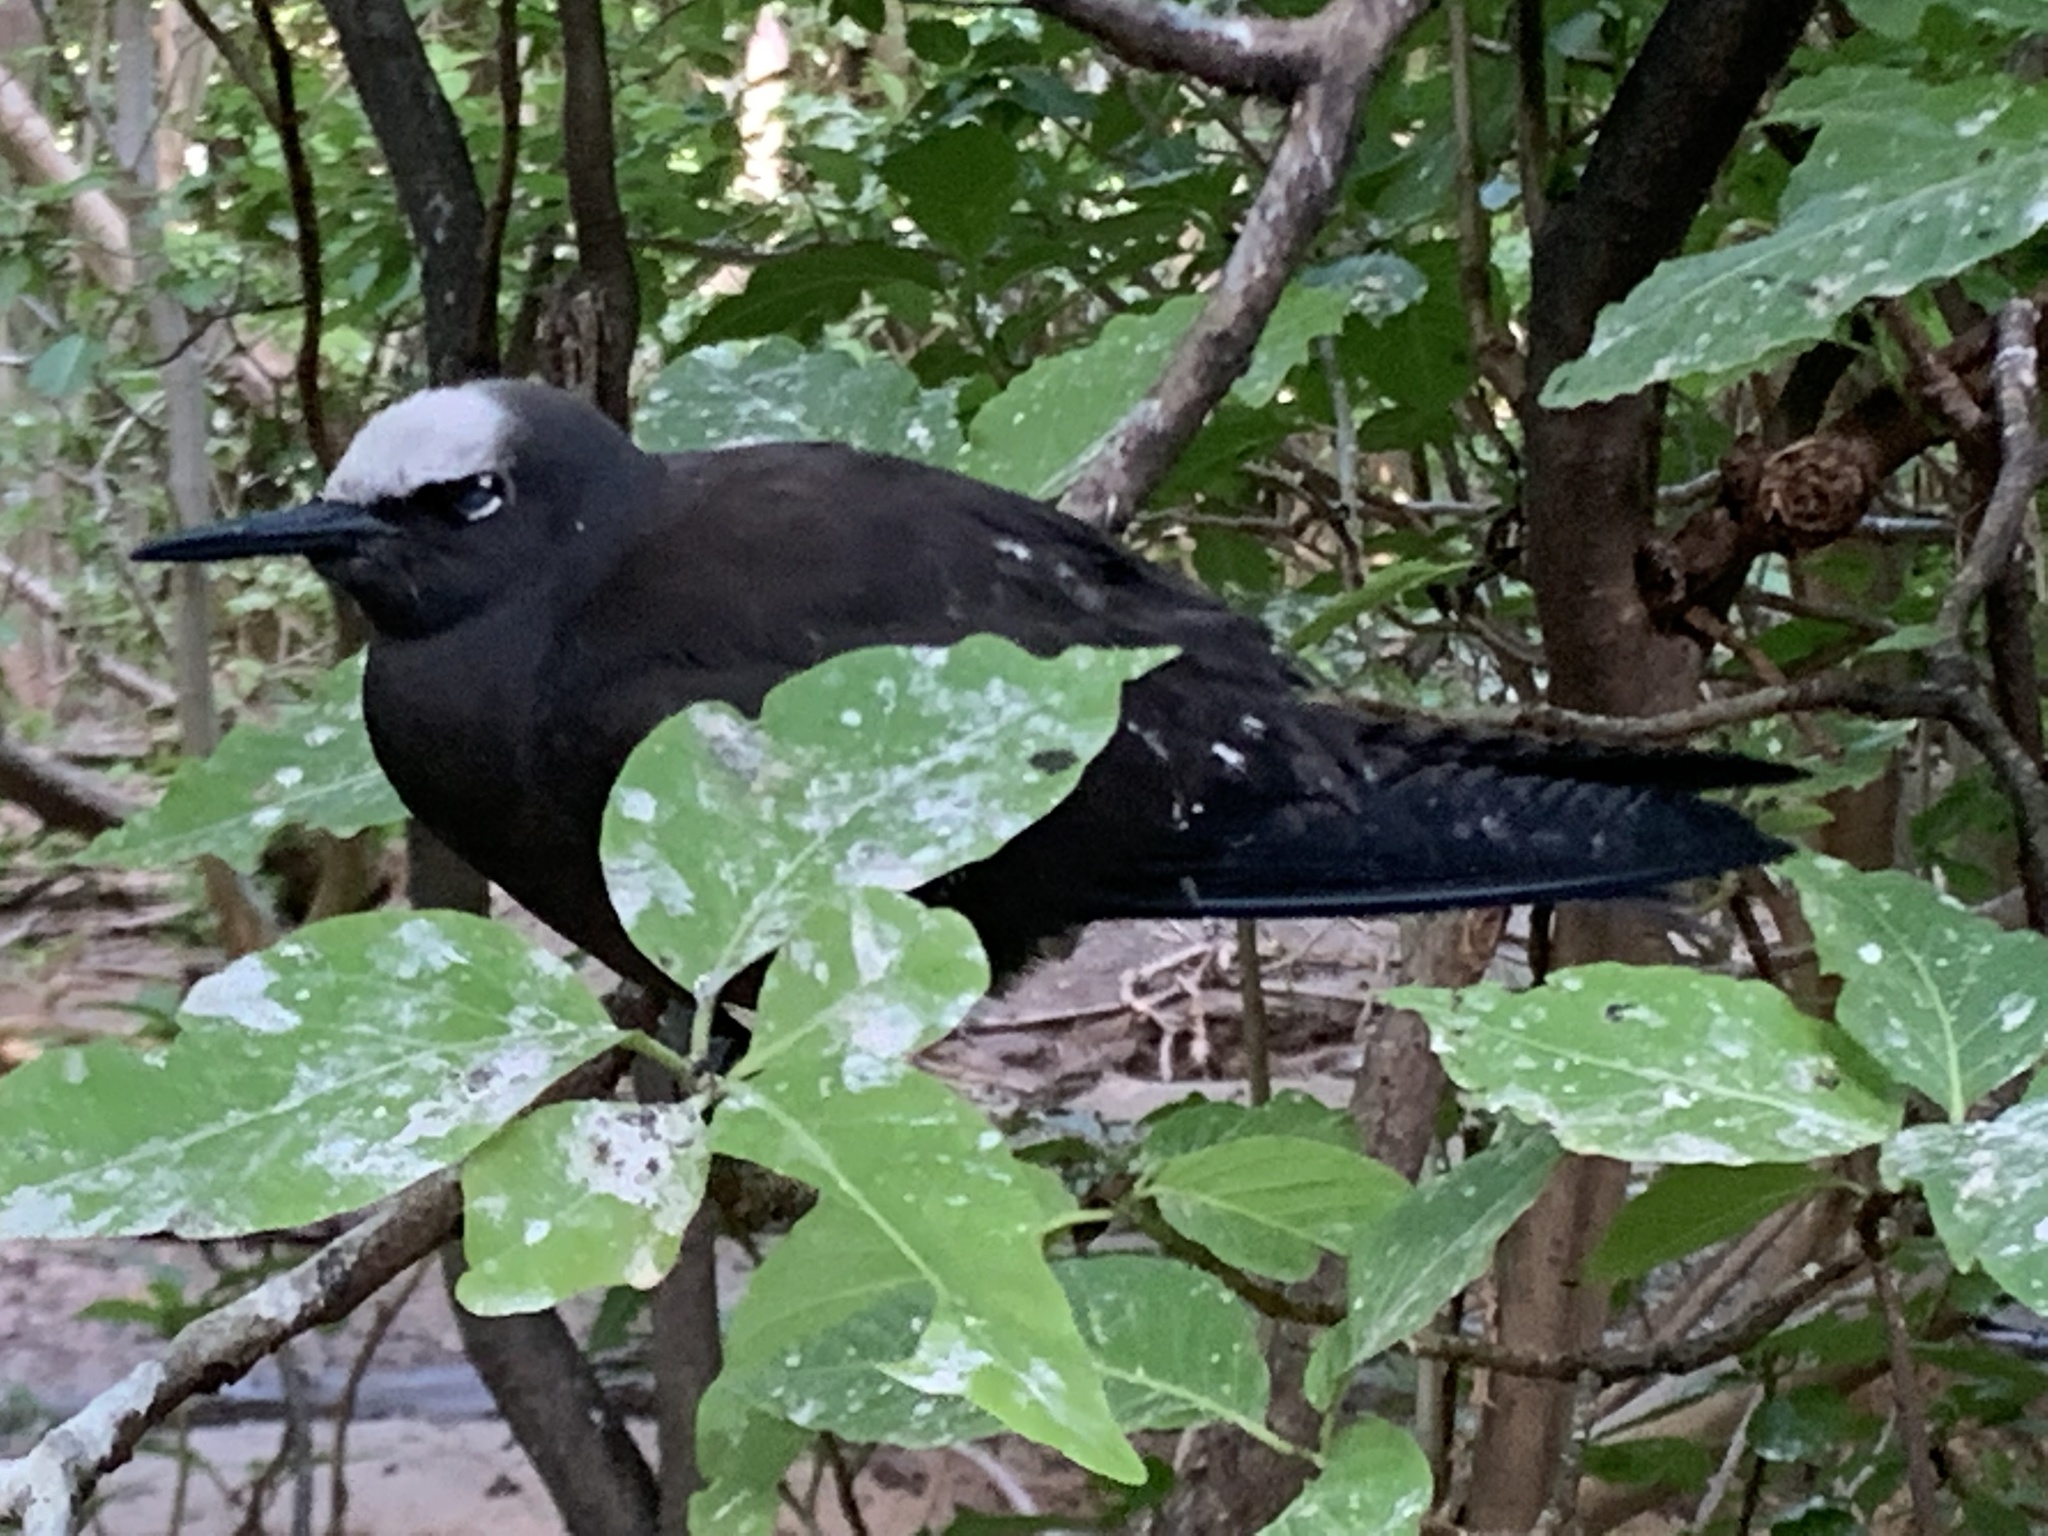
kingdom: Animalia
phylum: Chordata
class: Aves
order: Charadriiformes
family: Laridae
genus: Anous
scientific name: Anous minutus
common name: Black noddy
